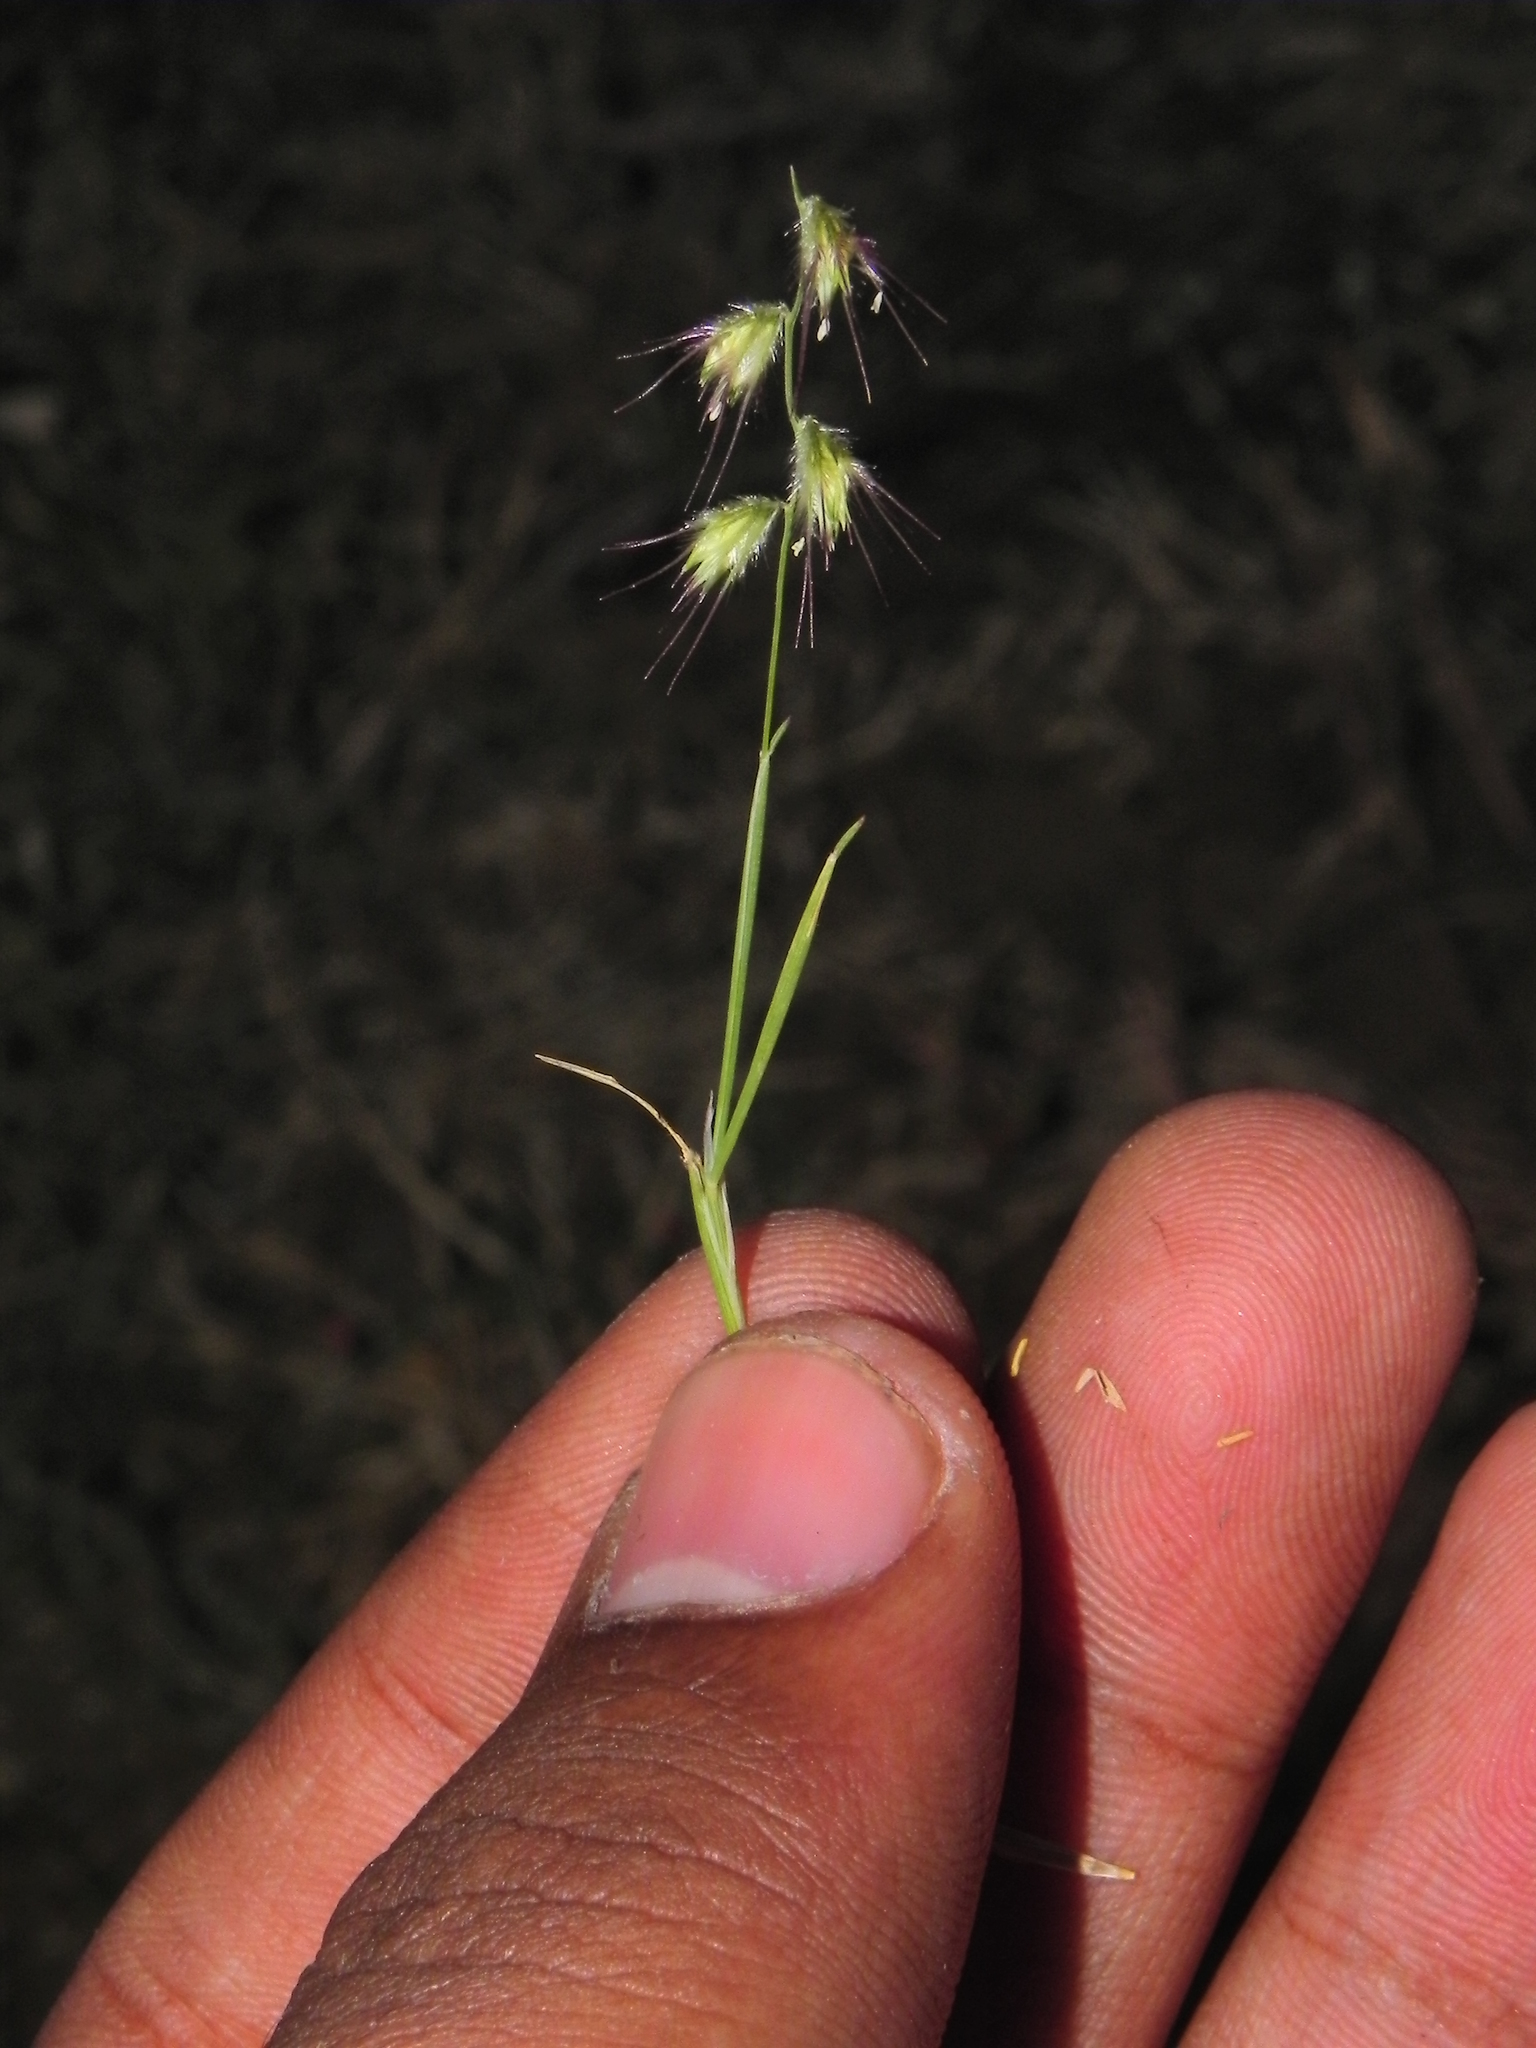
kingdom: Plantae
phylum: Tracheophyta
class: Liliopsida
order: Poales
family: Poaceae
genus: Melanocenchris
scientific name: Melanocenchris jacquemontii
